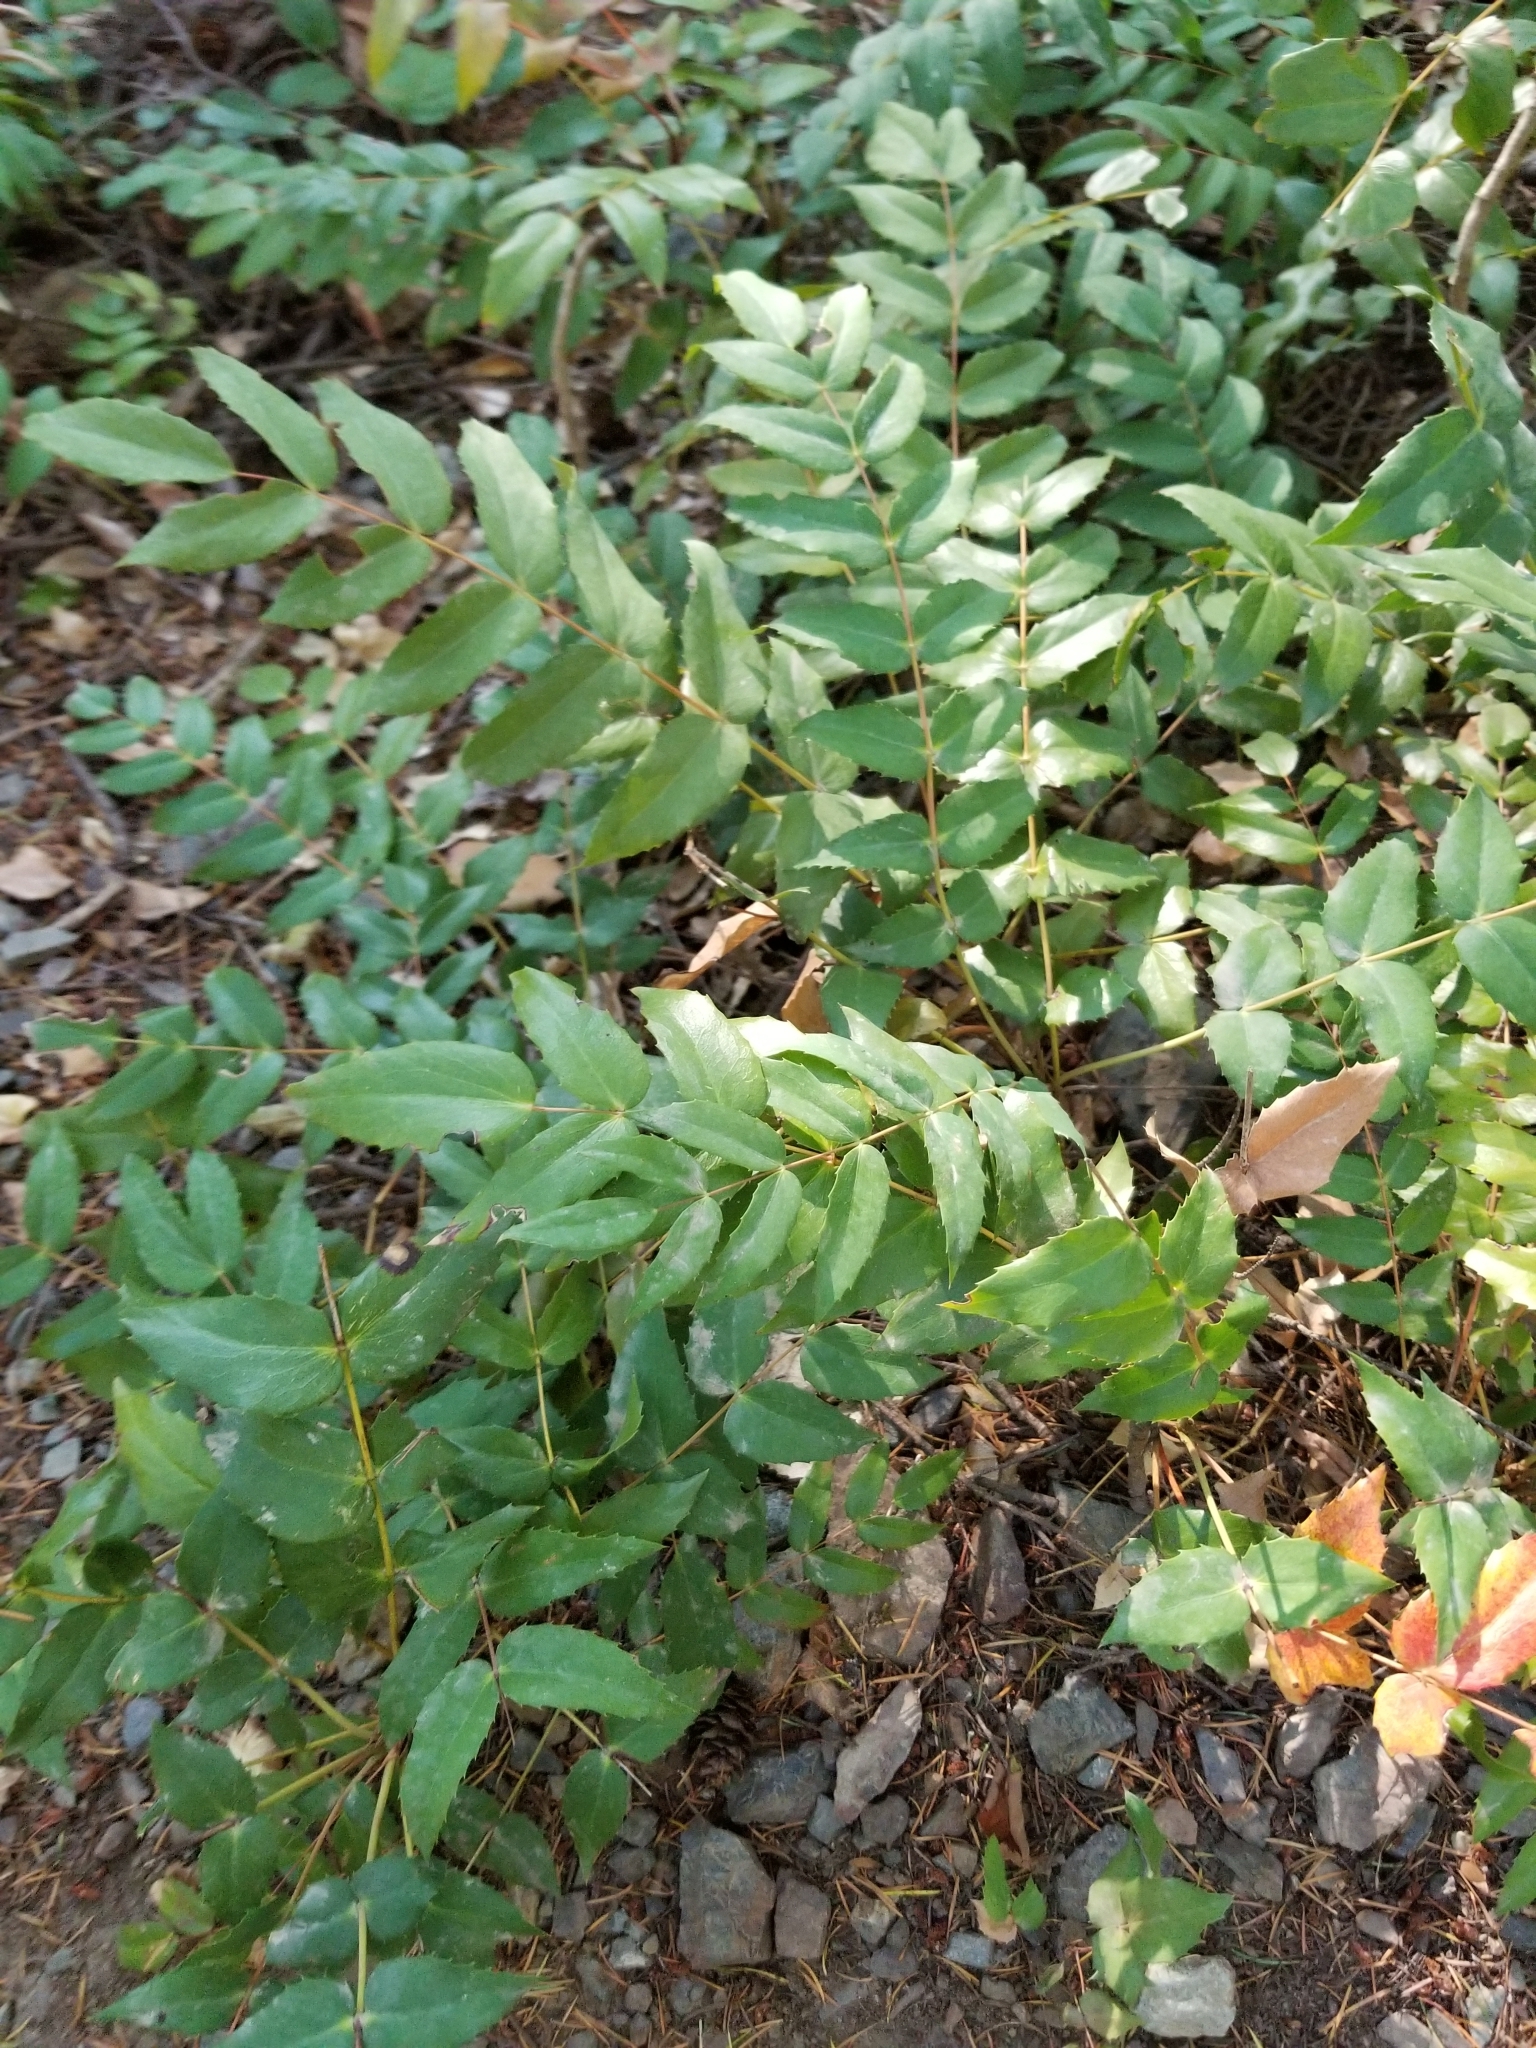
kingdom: Plantae
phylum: Tracheophyta
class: Magnoliopsida
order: Ranunculales
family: Berberidaceae
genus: Mahonia
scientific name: Mahonia nervosa
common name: Cascade oregon-grape
